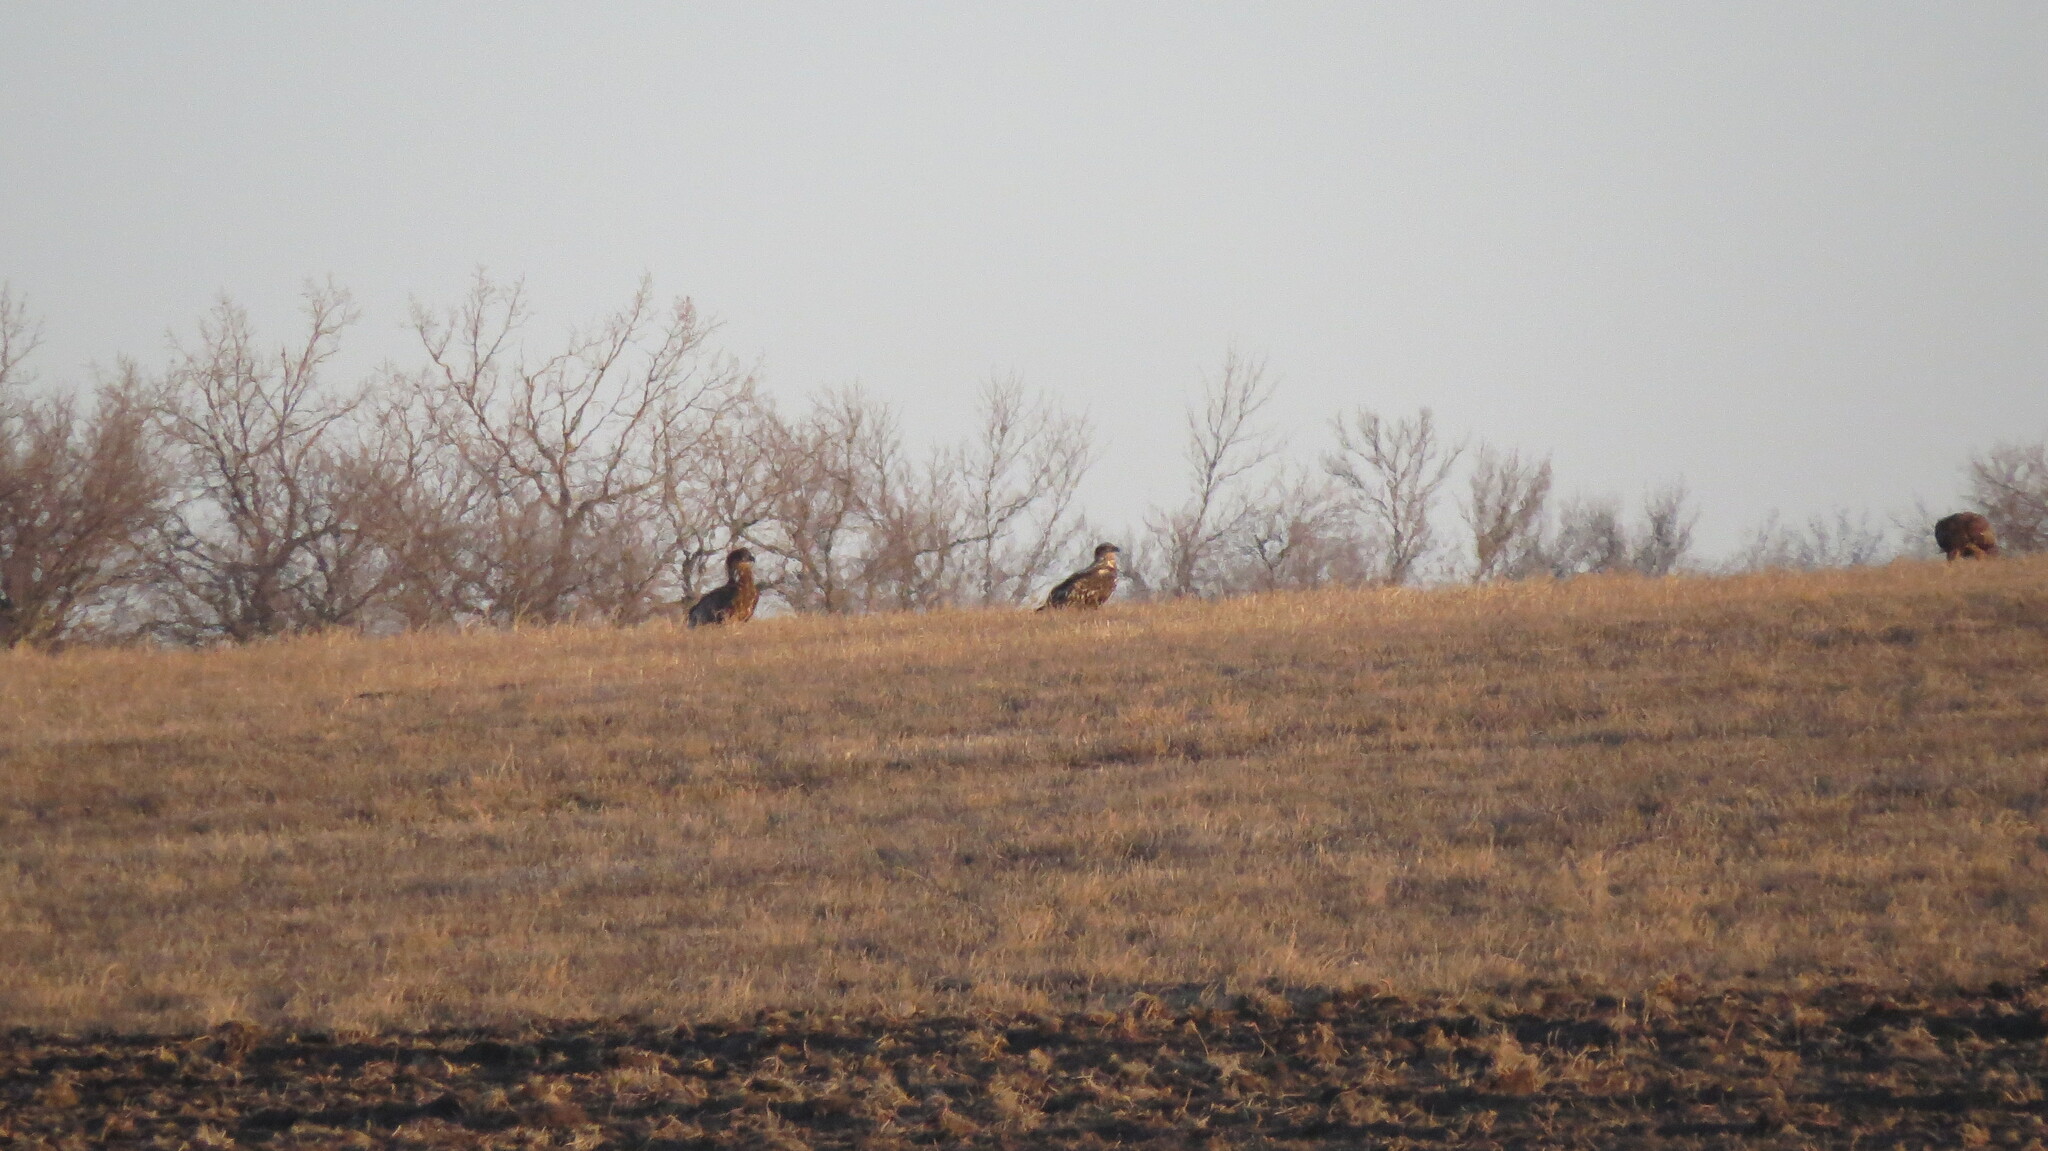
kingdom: Animalia
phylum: Chordata
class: Aves
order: Accipitriformes
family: Accipitridae
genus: Haliaeetus
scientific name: Haliaeetus leucocephalus
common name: Bald eagle
